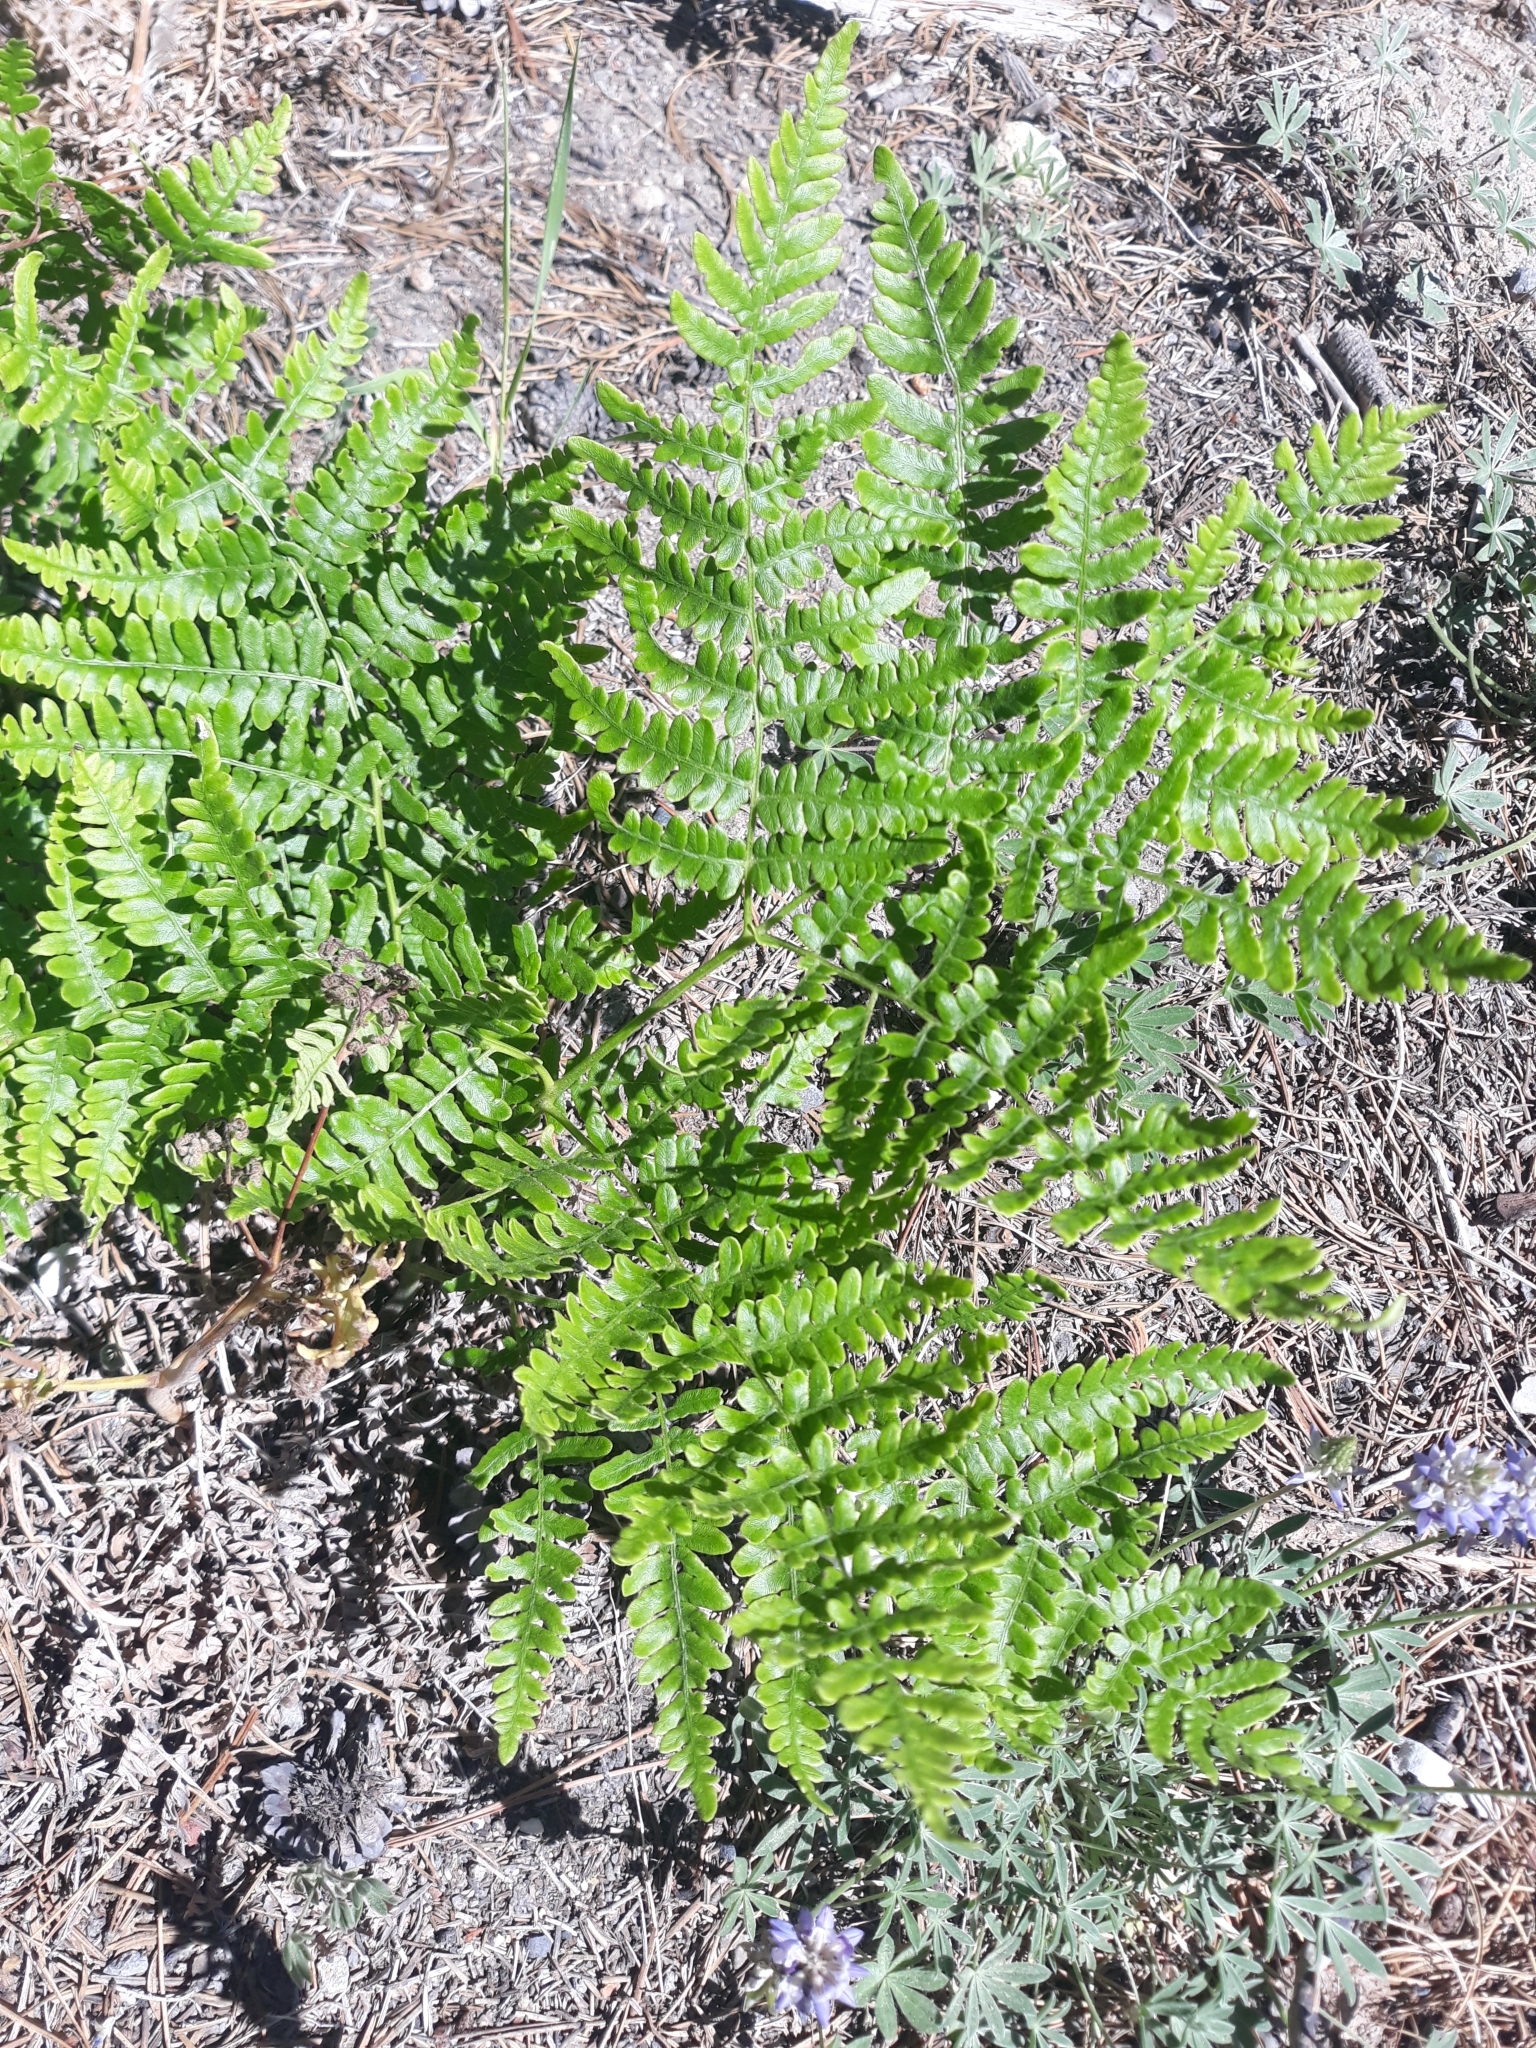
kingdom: Plantae
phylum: Tracheophyta
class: Polypodiopsida
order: Polypodiales
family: Dennstaedtiaceae
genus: Pteridium
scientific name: Pteridium aquilinum
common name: Bracken
